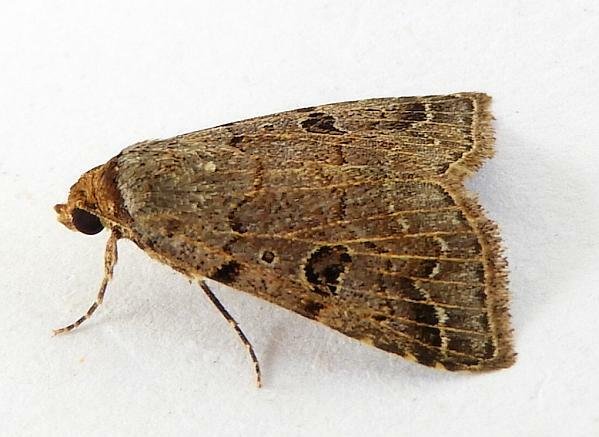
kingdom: Animalia
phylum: Arthropoda
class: Insecta
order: Lepidoptera
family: Erebidae
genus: Glympis
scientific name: Glympis concors
